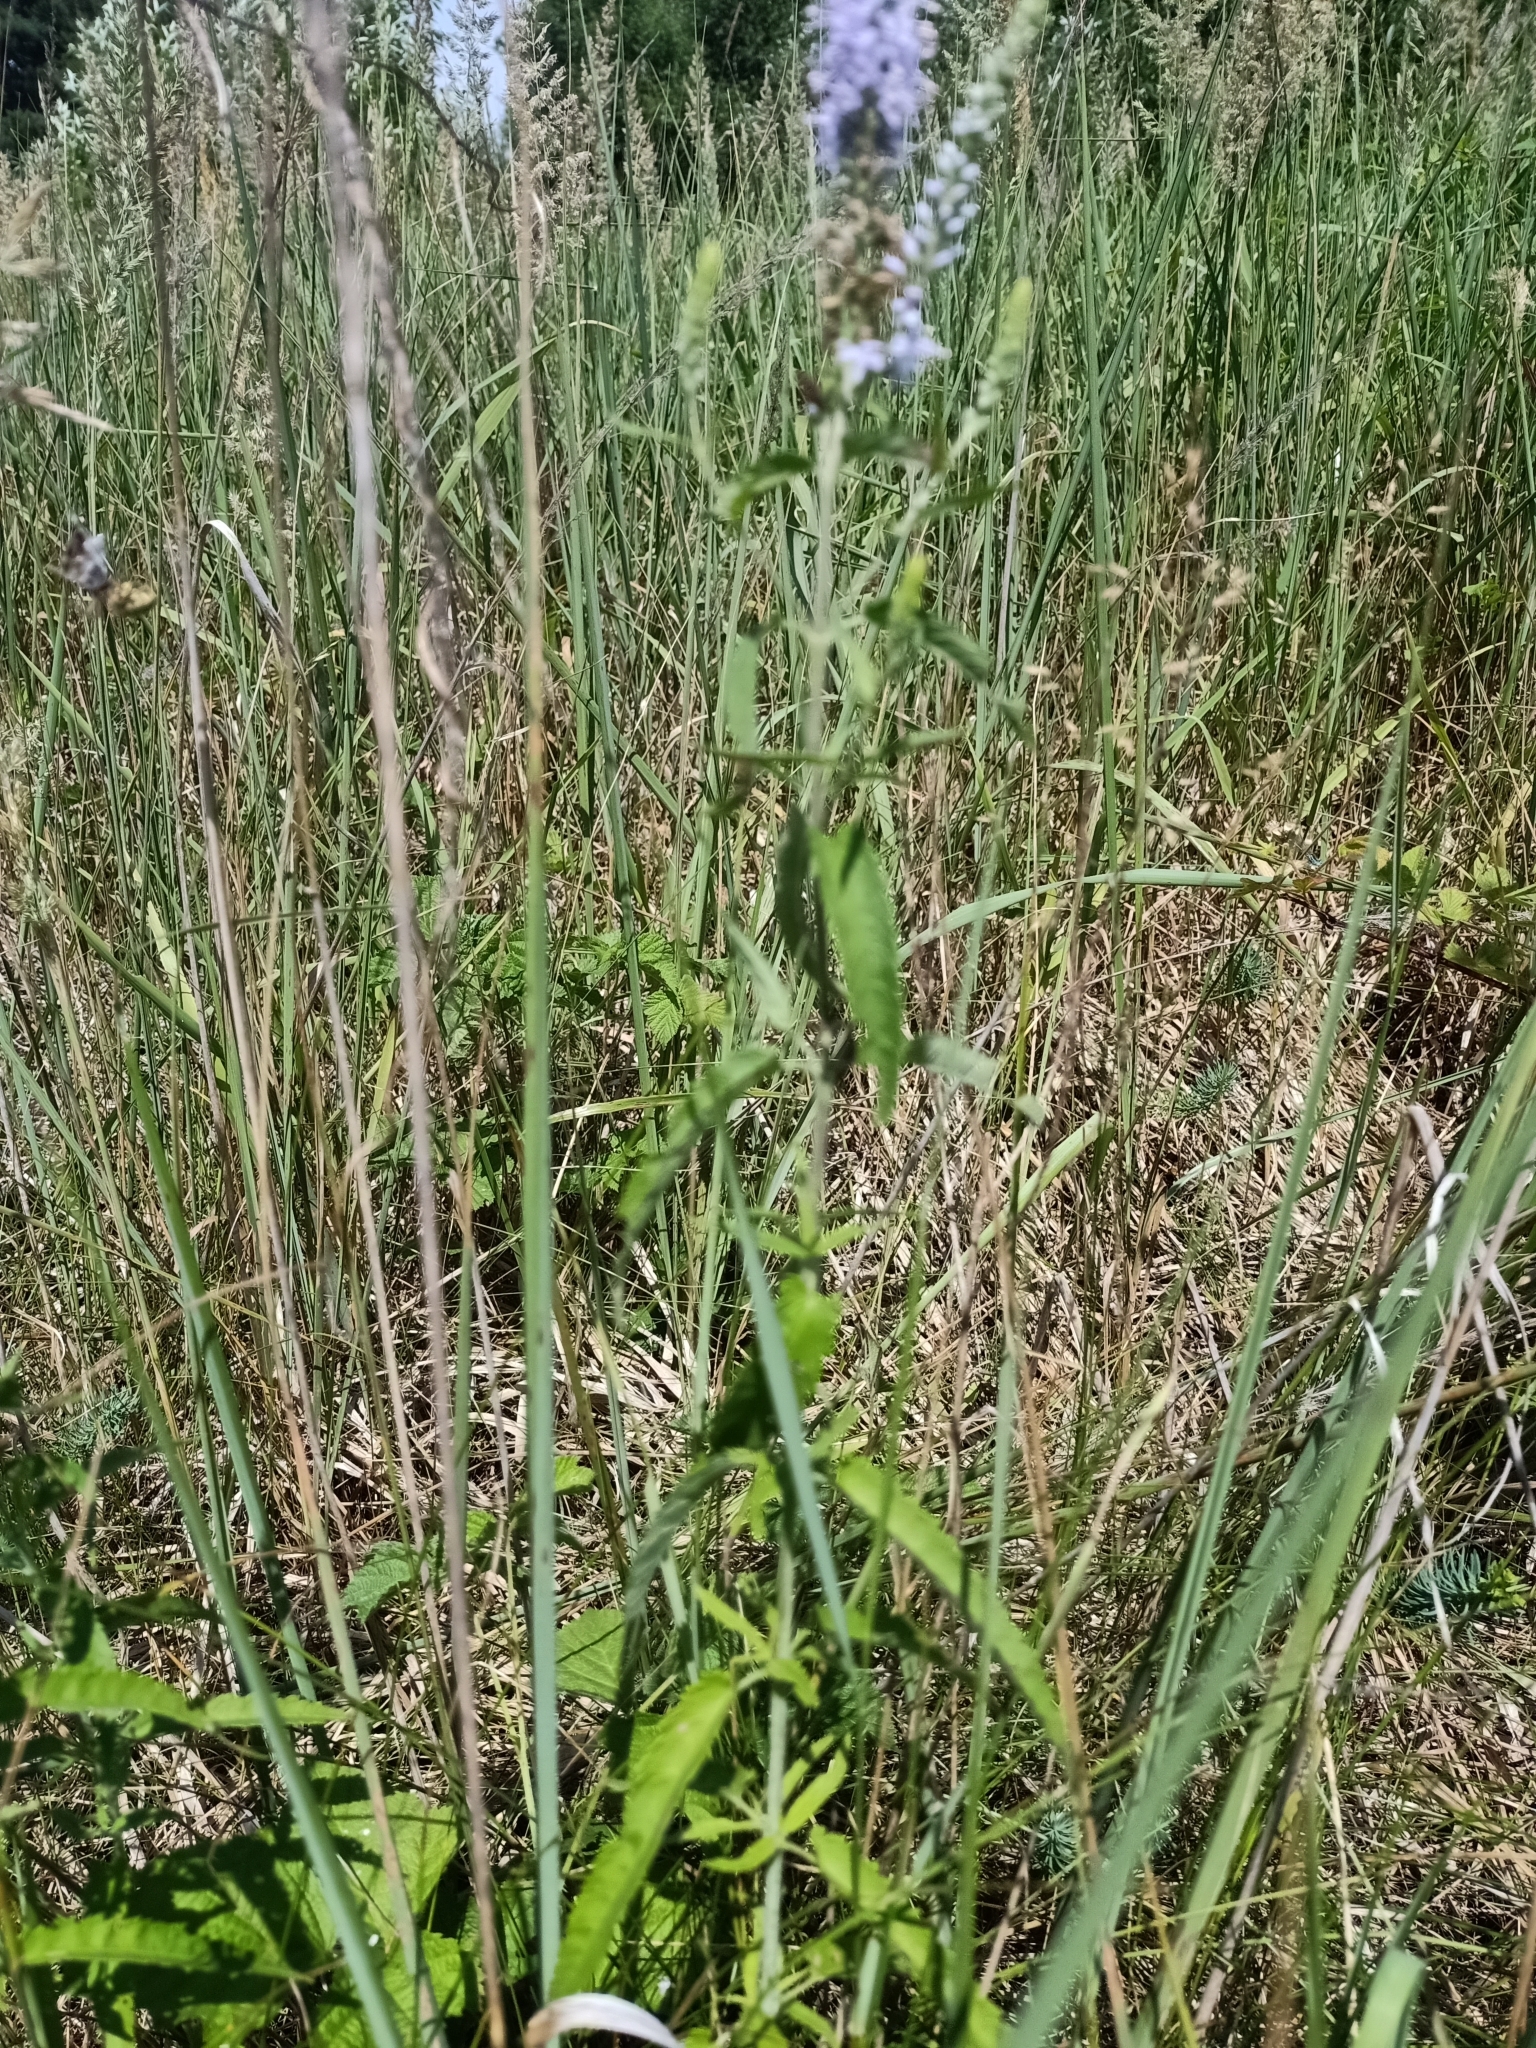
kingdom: Plantae
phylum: Tracheophyta
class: Magnoliopsida
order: Lamiales
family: Plantaginaceae
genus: Veronica
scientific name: Veronica longifolia
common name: Garden speedwell
